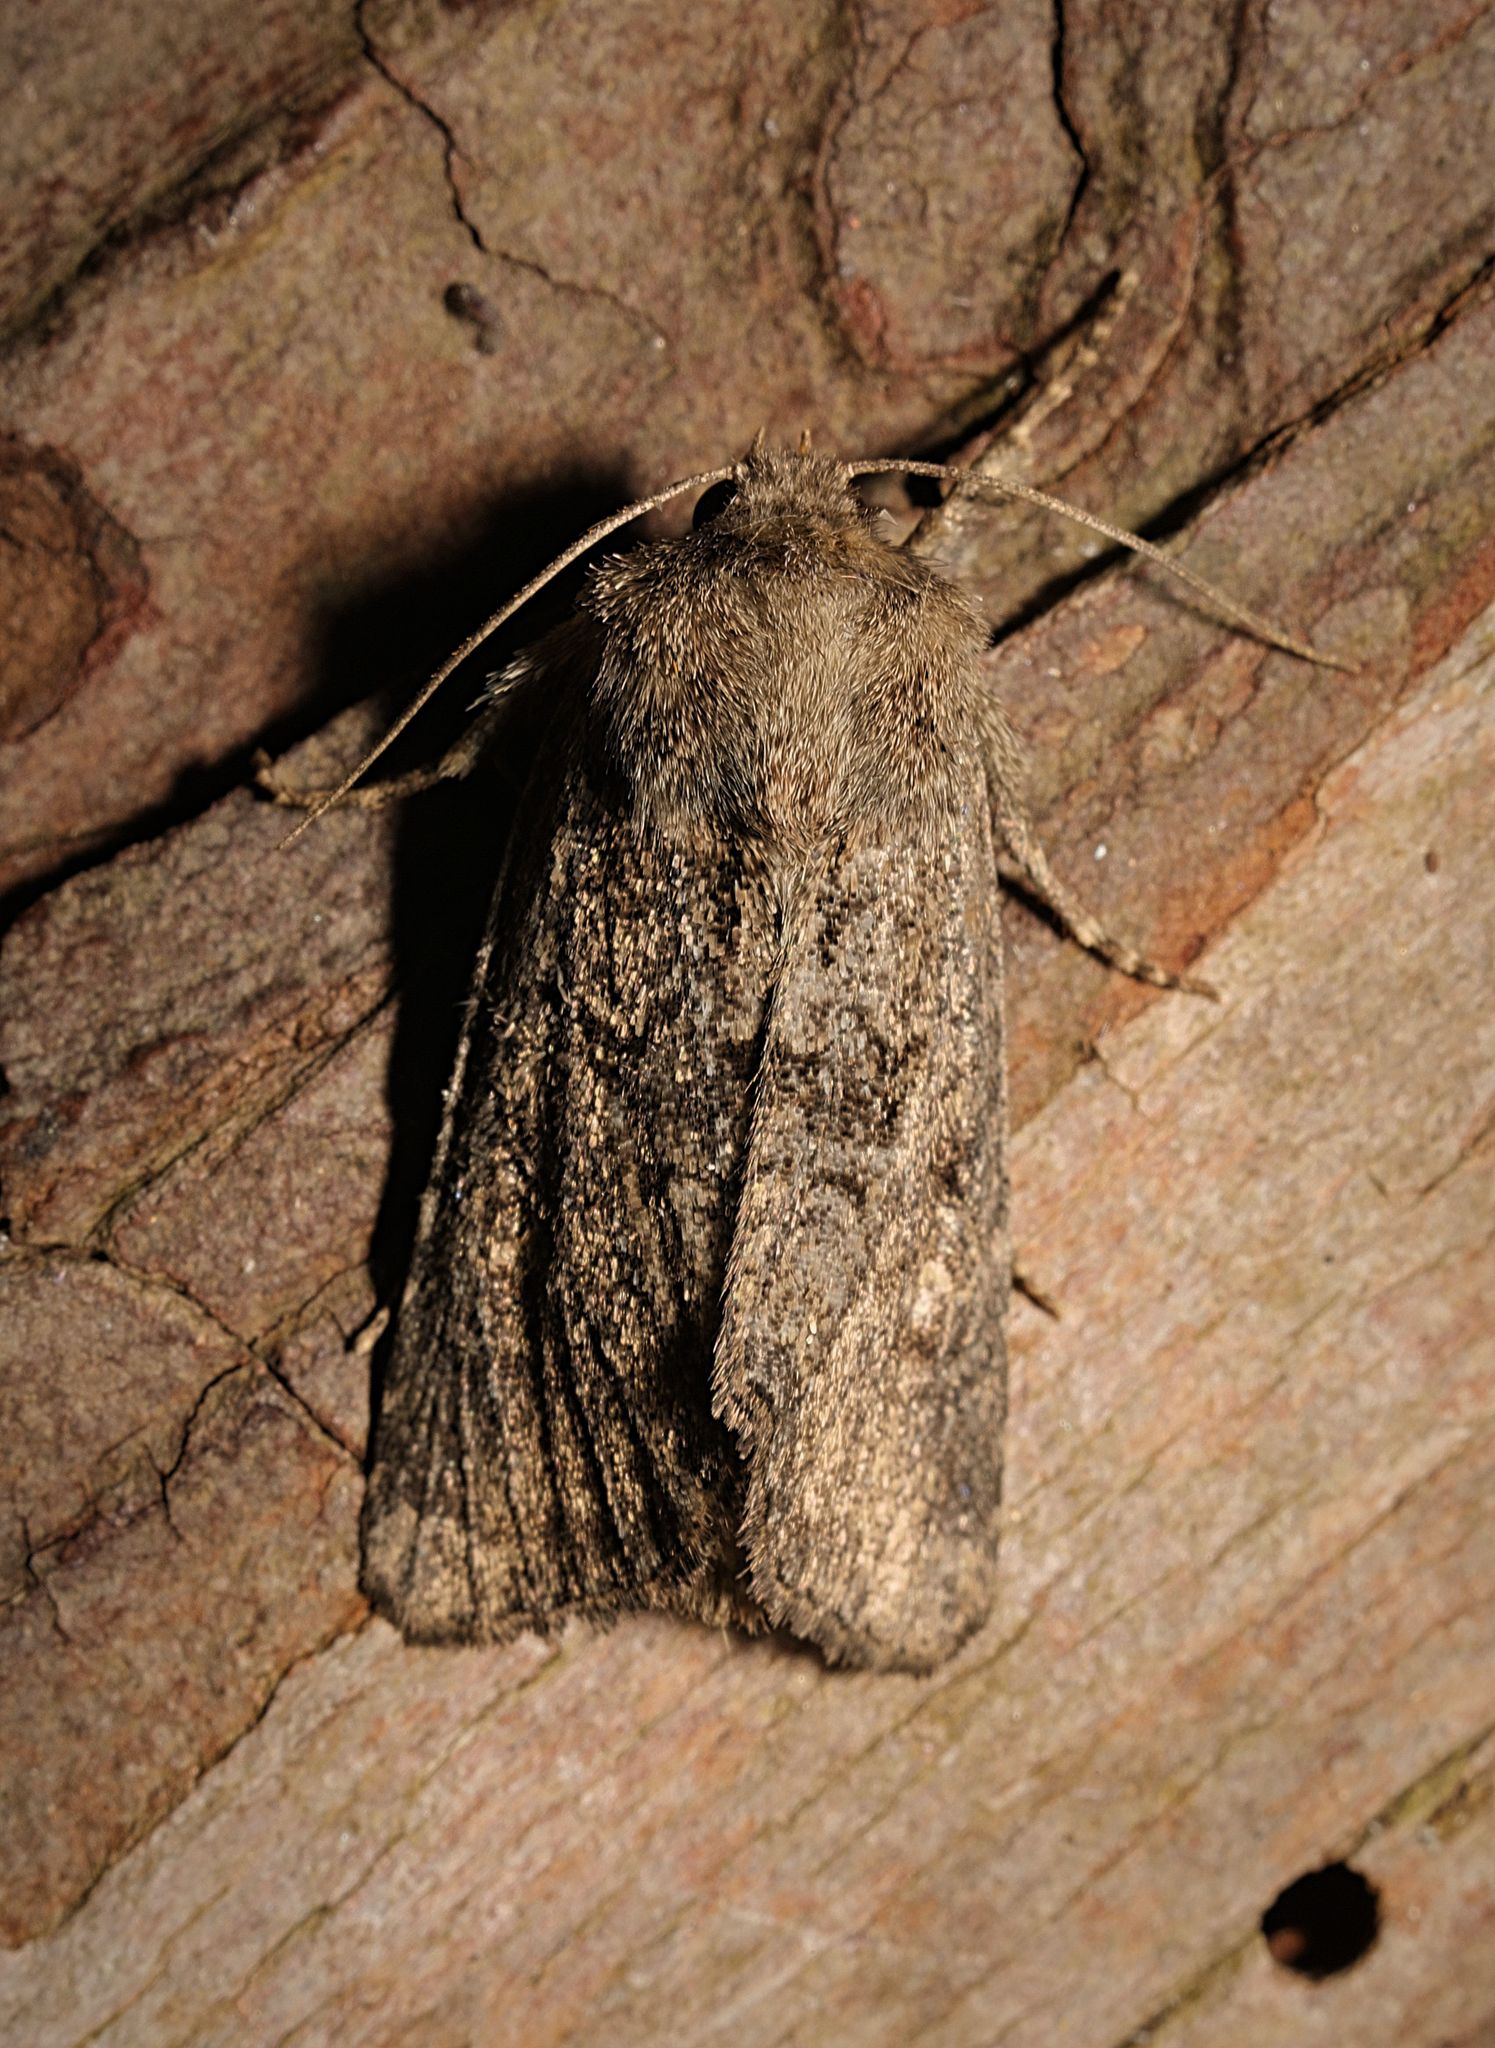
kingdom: Animalia
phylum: Arthropoda
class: Insecta
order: Lepidoptera
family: Noctuidae
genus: Luperina
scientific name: Luperina testacea
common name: Flounced rustic
